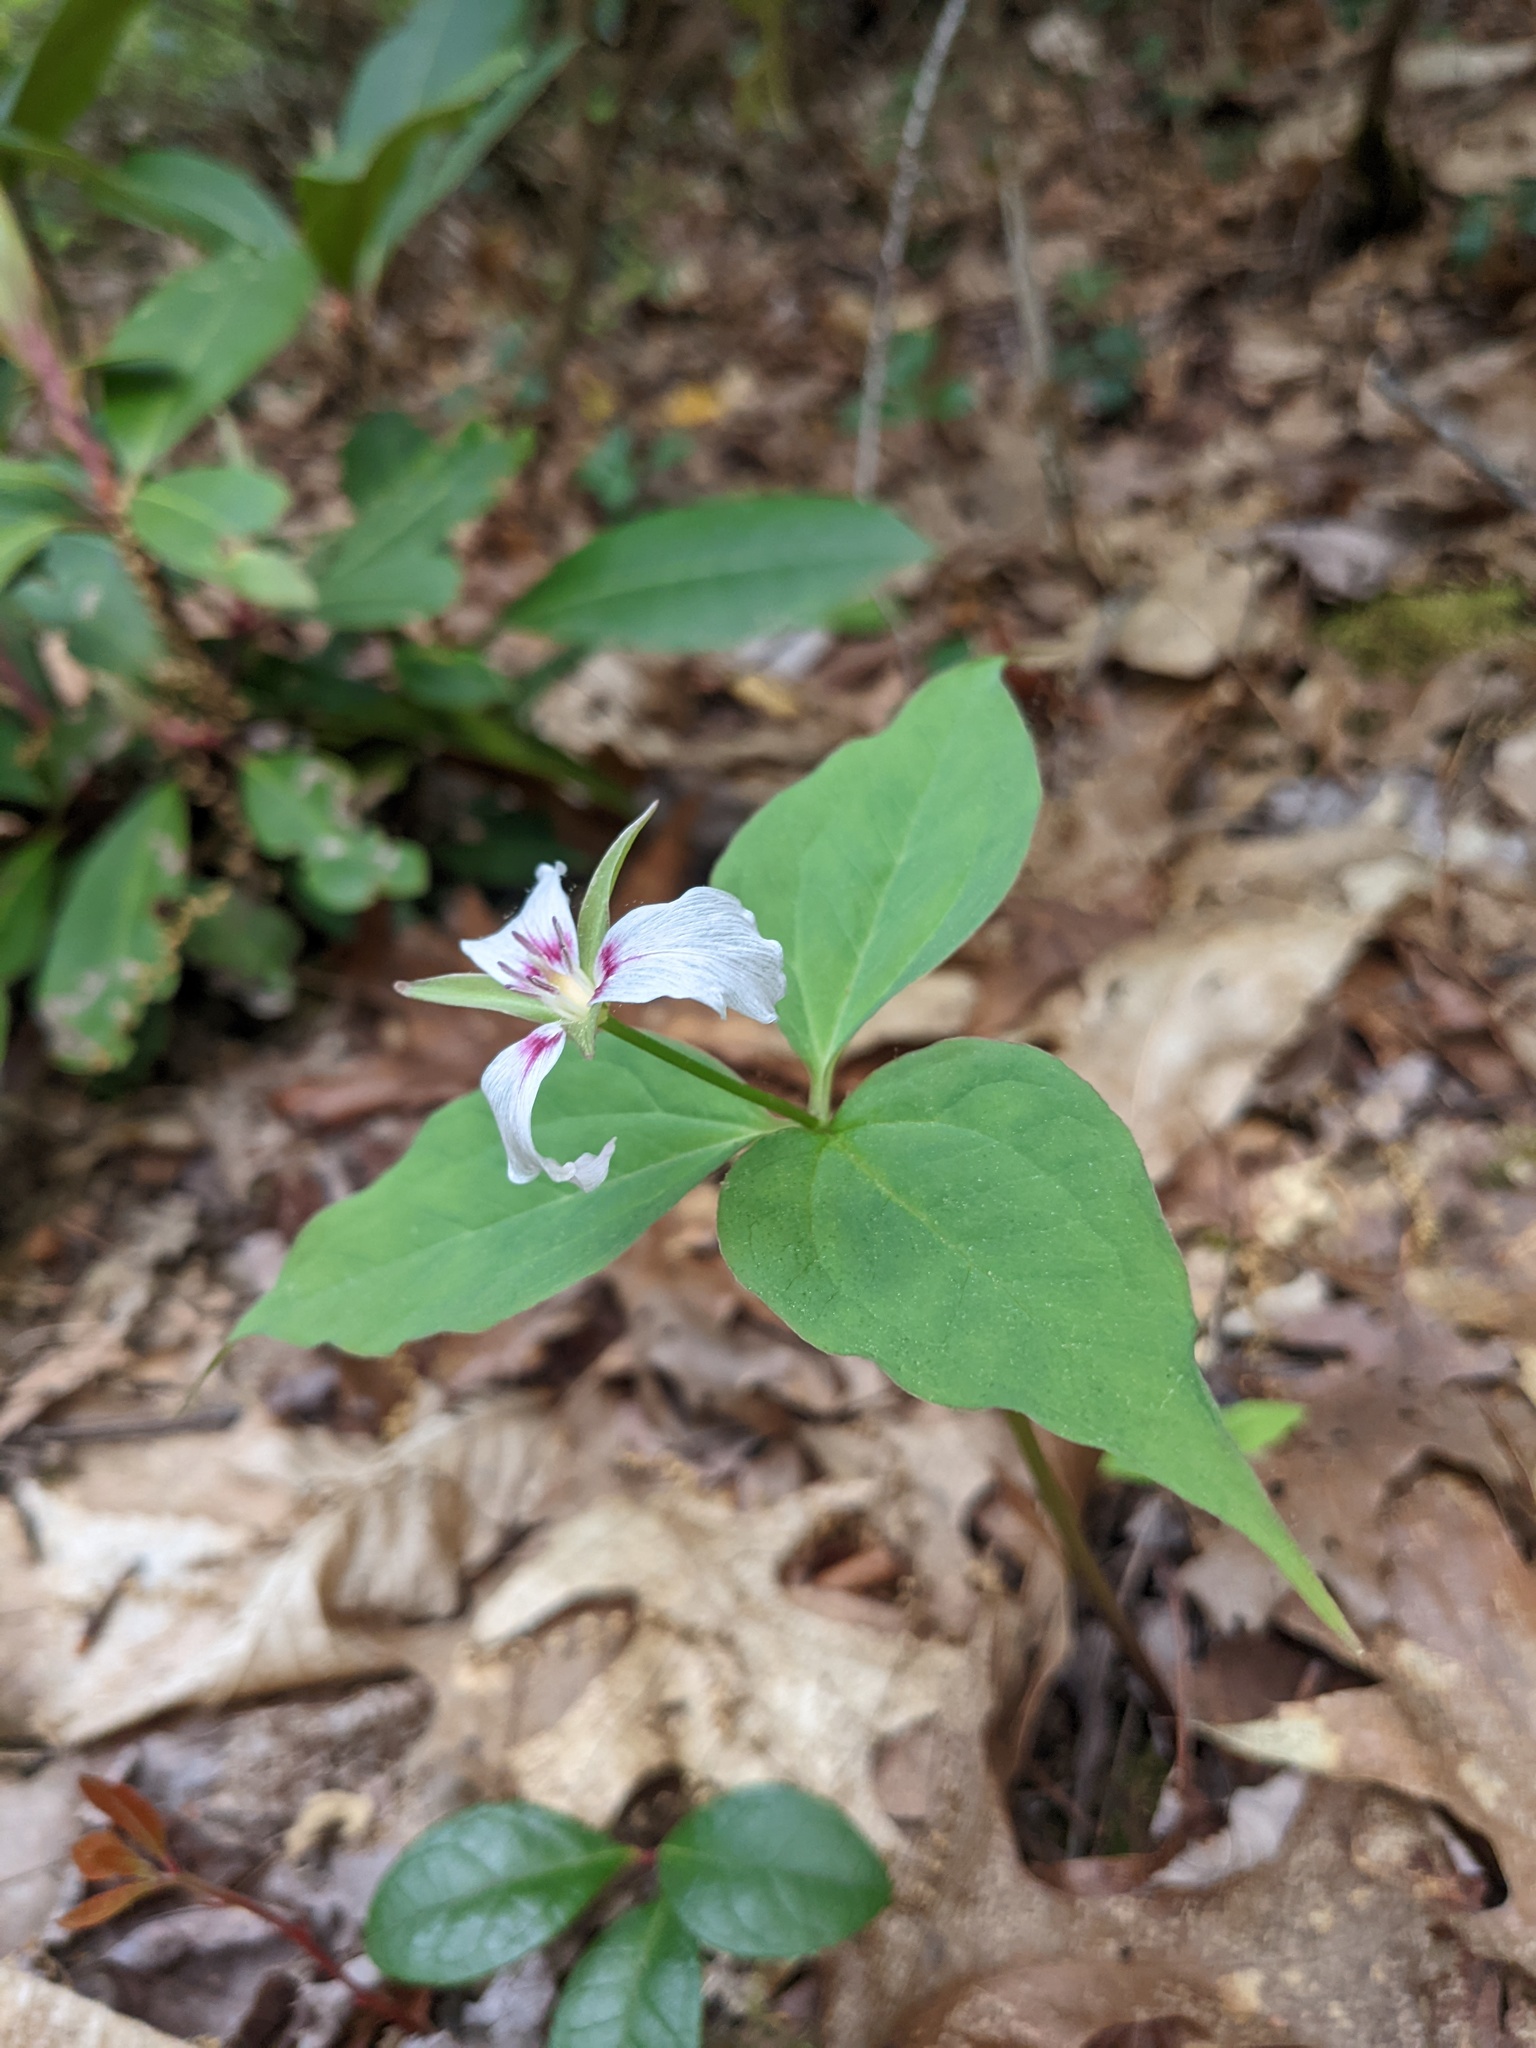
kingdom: Plantae
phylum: Tracheophyta
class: Liliopsida
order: Liliales
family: Melanthiaceae
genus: Trillium
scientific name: Trillium undulatum
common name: Paint trillium
